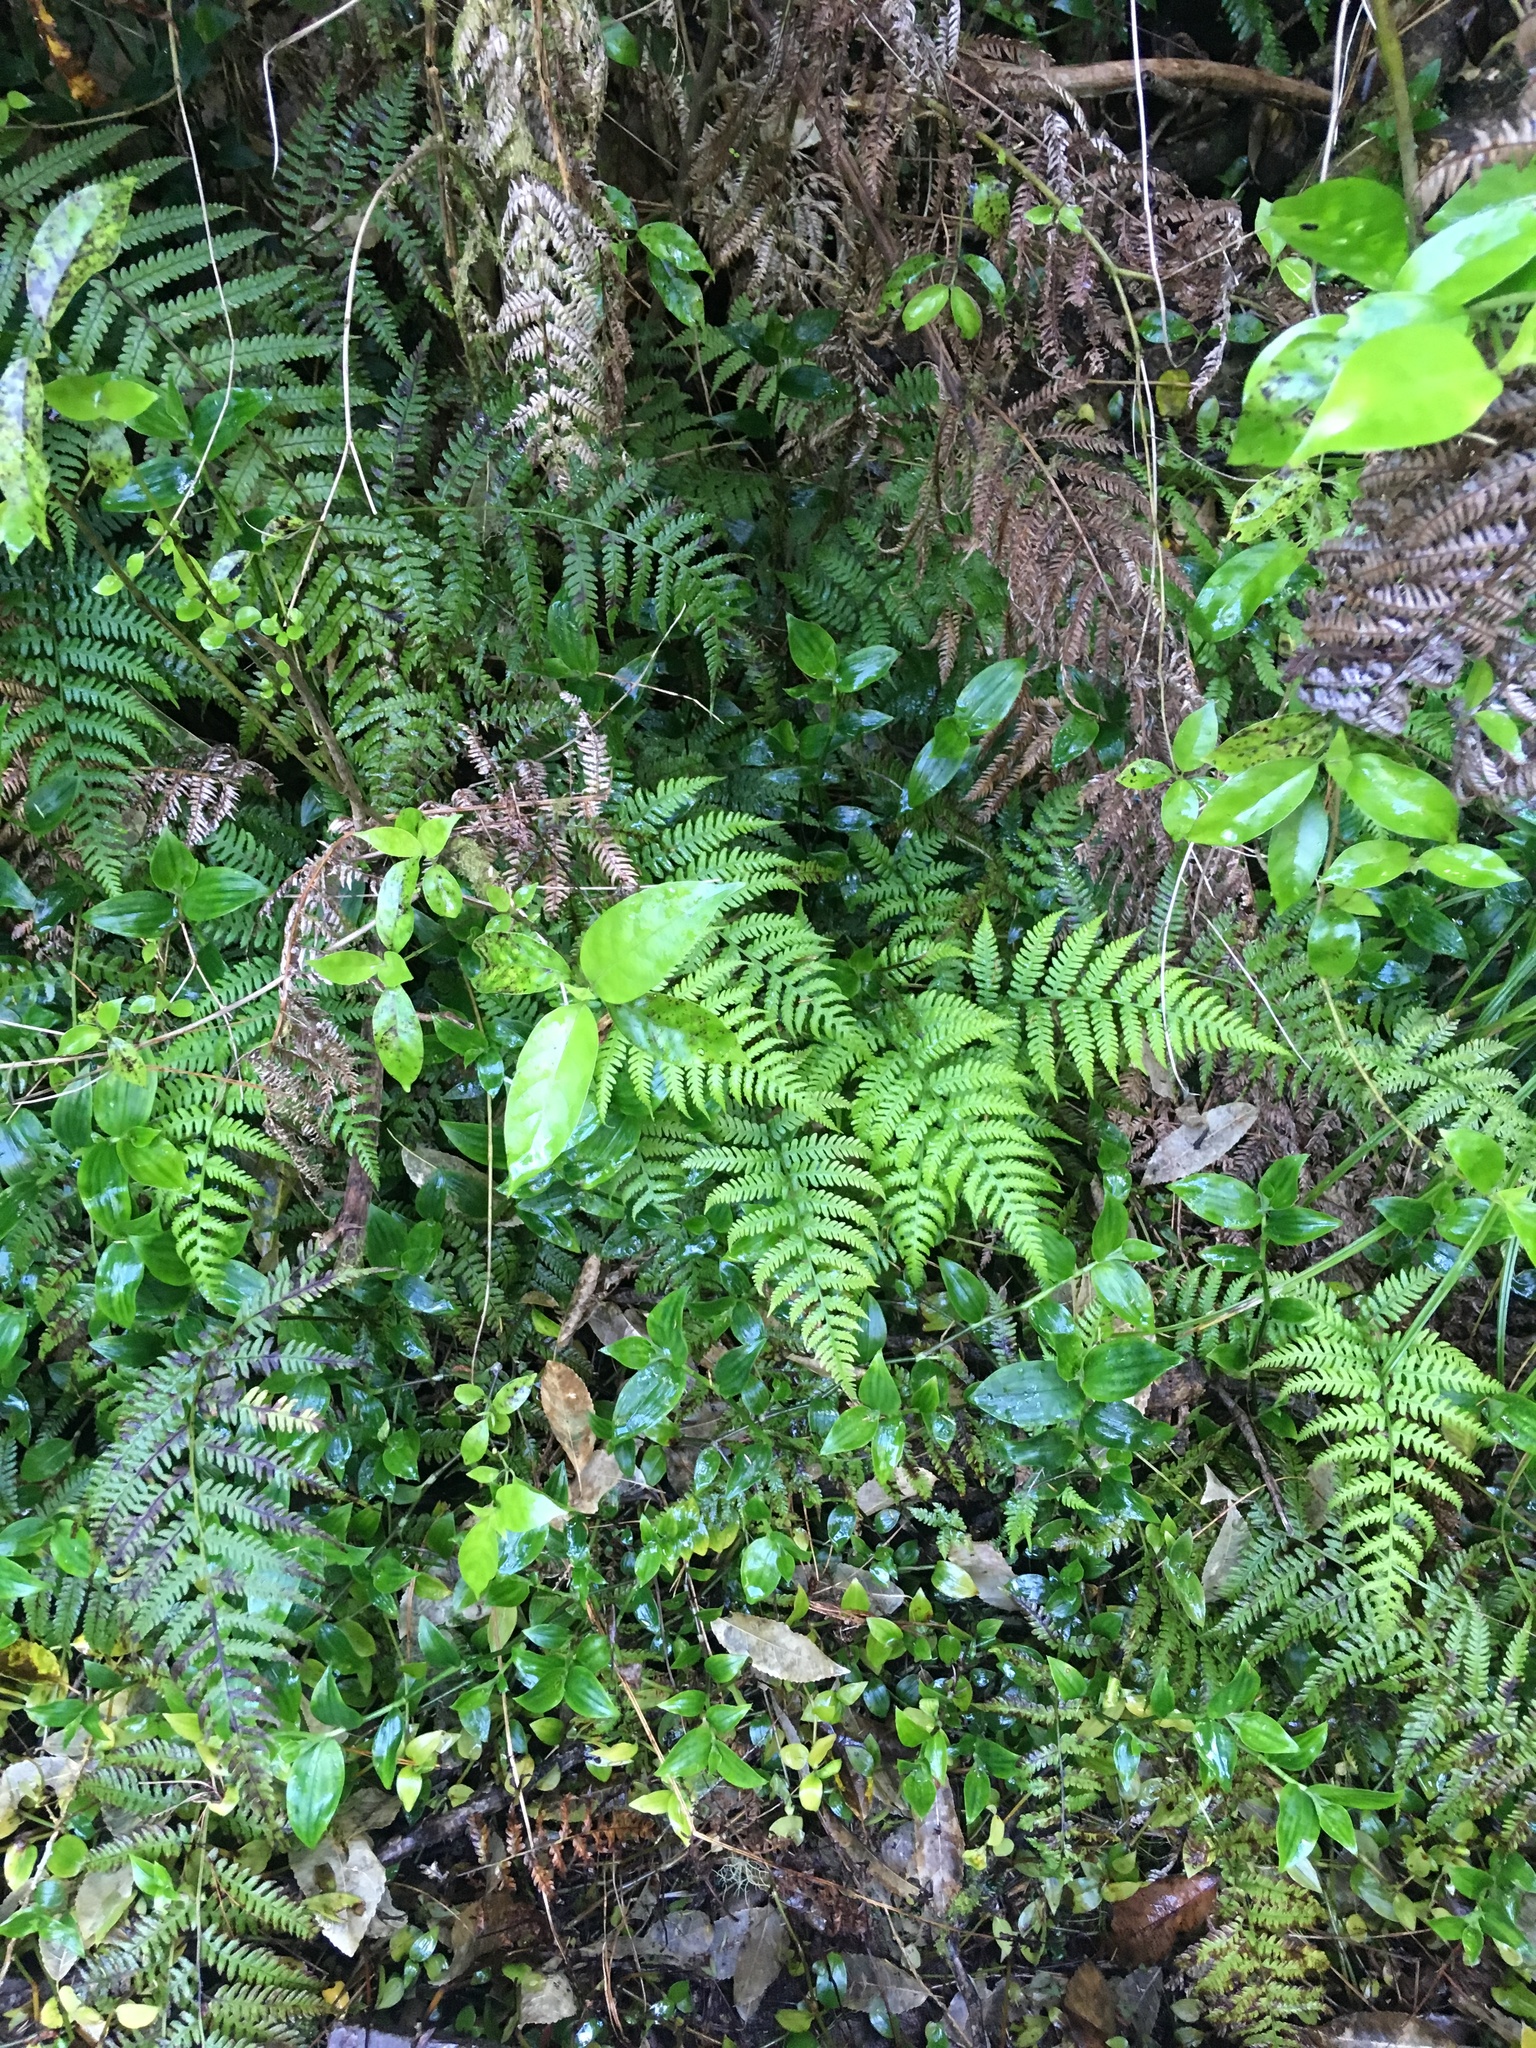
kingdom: Plantae
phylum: Tracheophyta
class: Liliopsida
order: Commelinales
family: Commelinaceae
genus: Tradescantia
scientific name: Tradescantia fluminensis
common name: Wandering-jew
